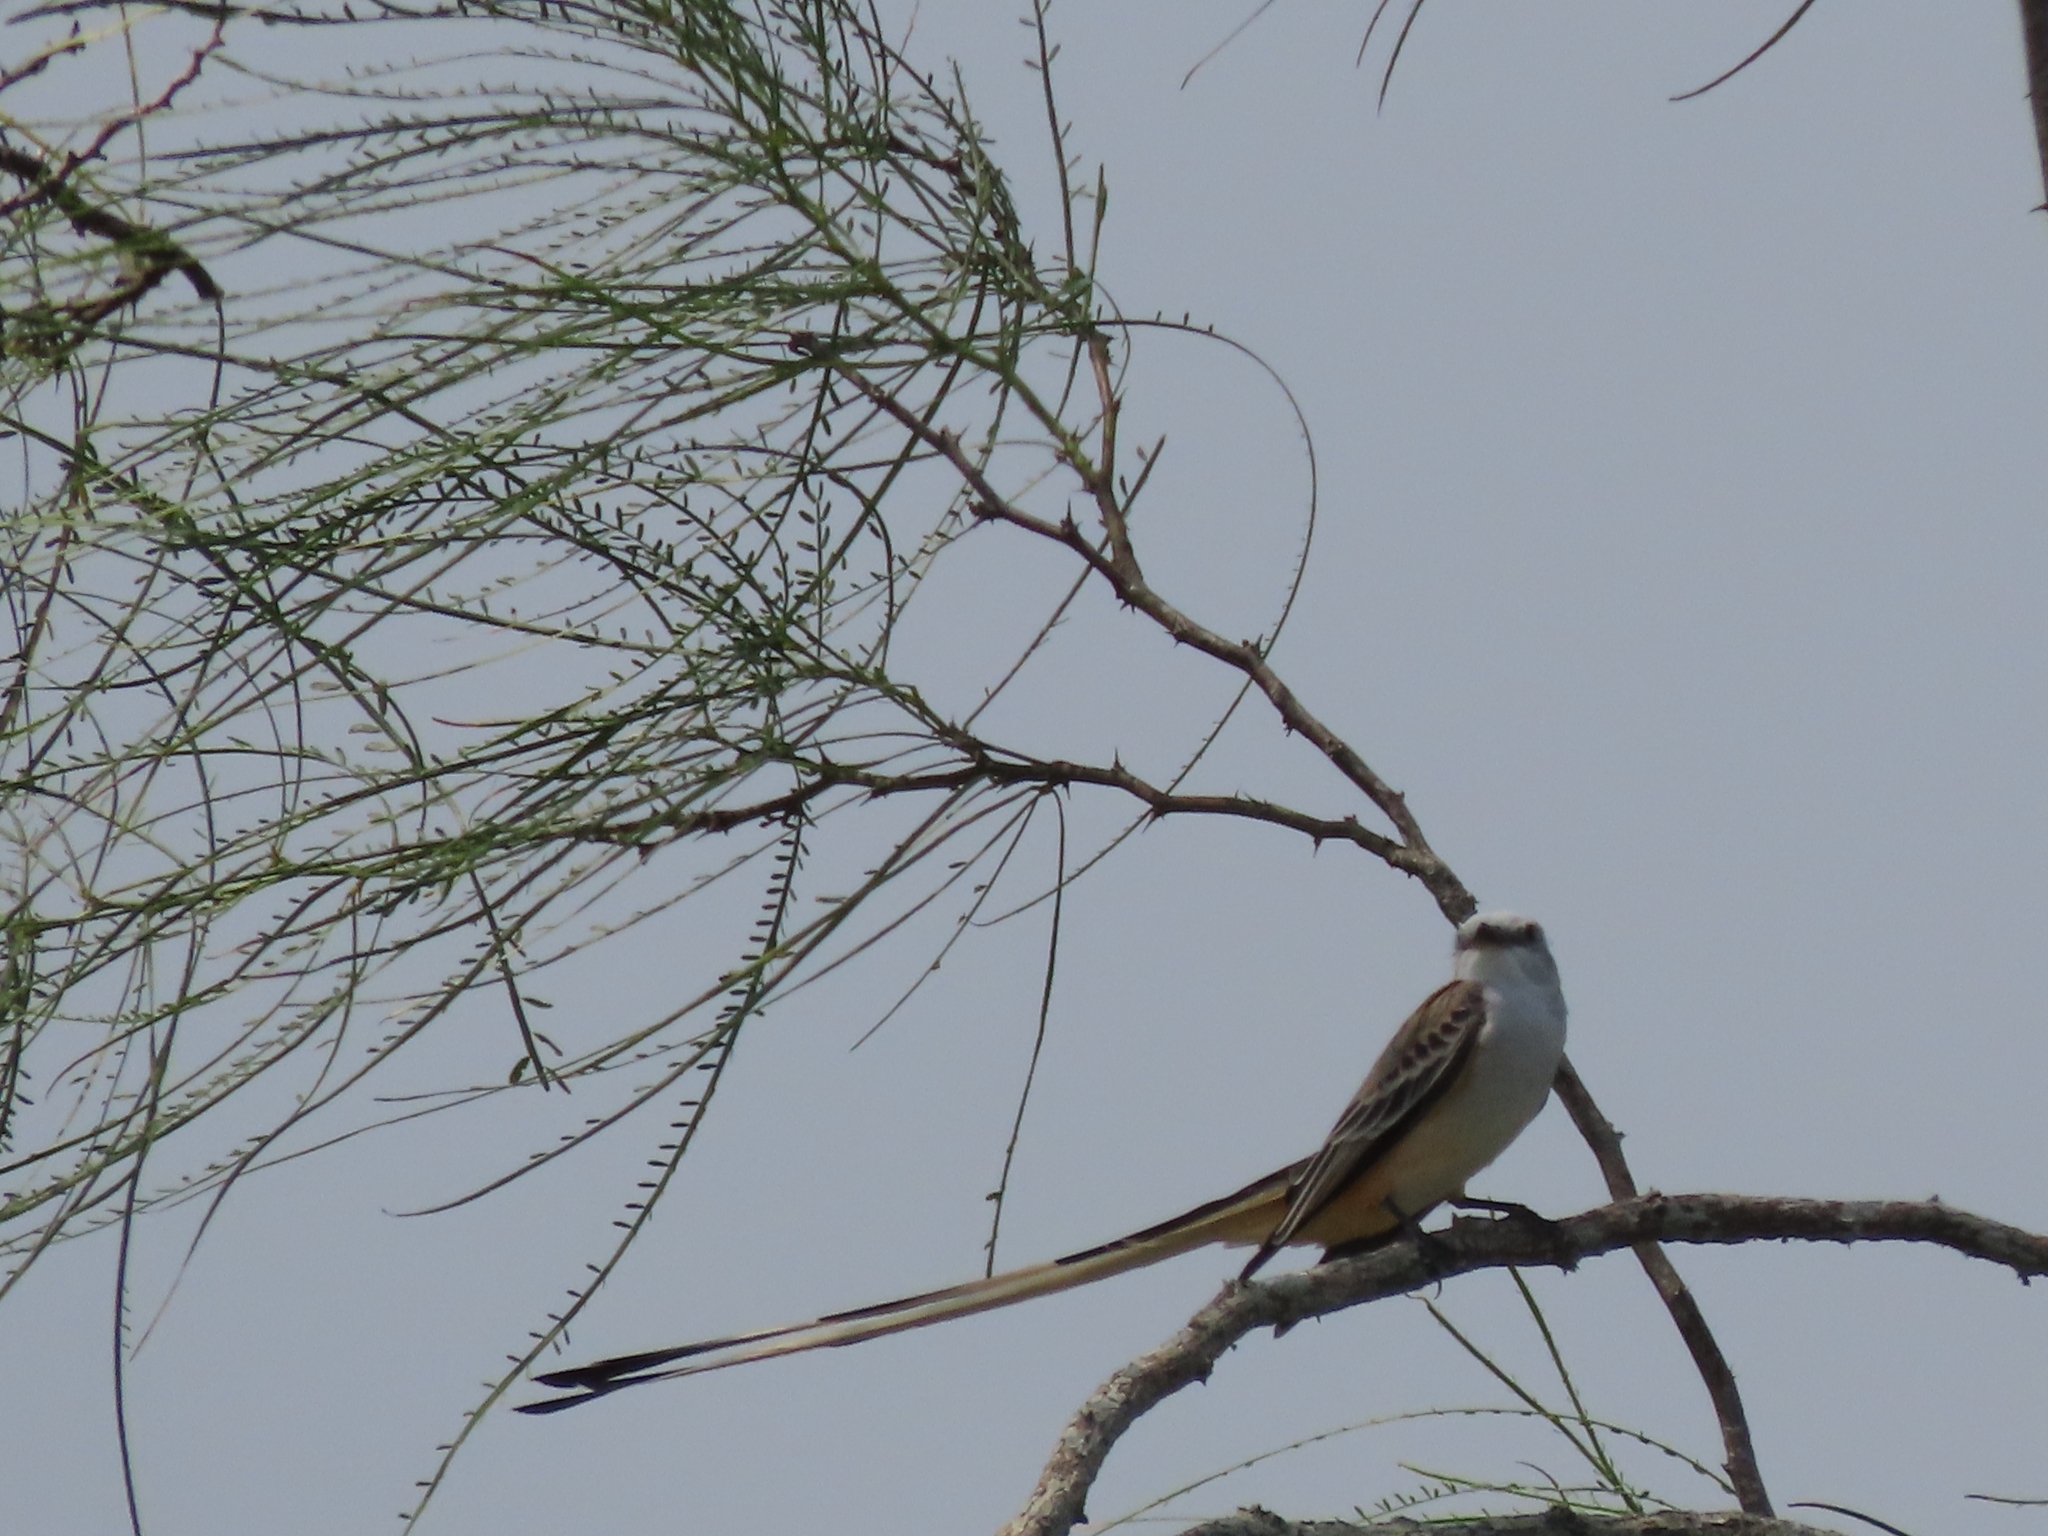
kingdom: Animalia
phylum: Chordata
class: Aves
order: Passeriformes
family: Tyrannidae
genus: Tyrannus
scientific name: Tyrannus forficatus
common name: Scissor-tailed flycatcher
